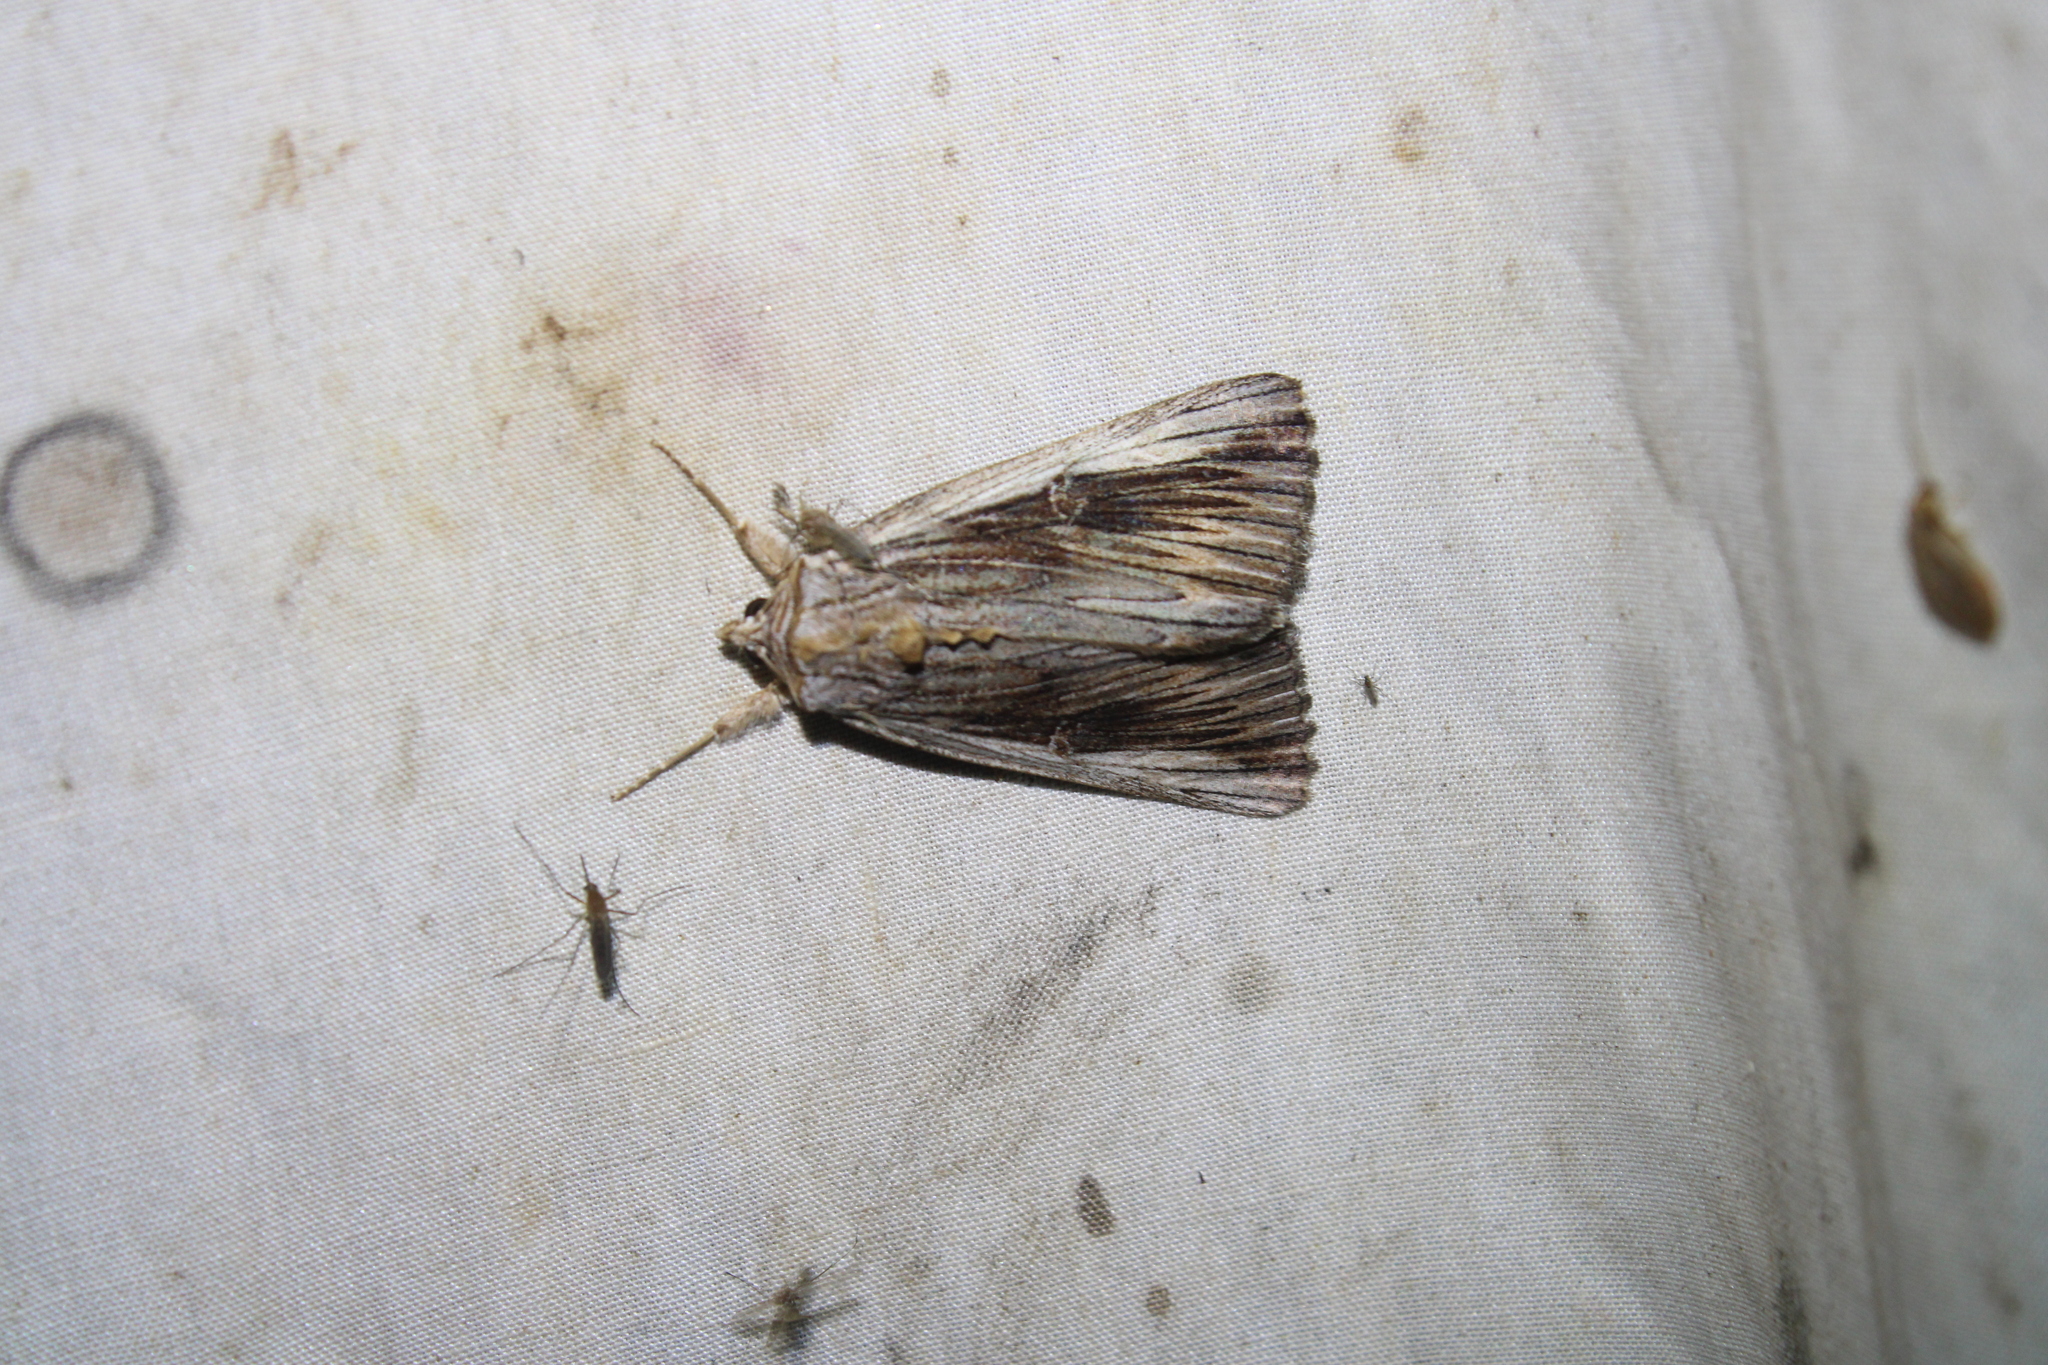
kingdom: Animalia
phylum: Arthropoda
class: Insecta
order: Lepidoptera
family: Erebidae
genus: Catocala
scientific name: Catocala herodias
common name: Pine barrens underwing
